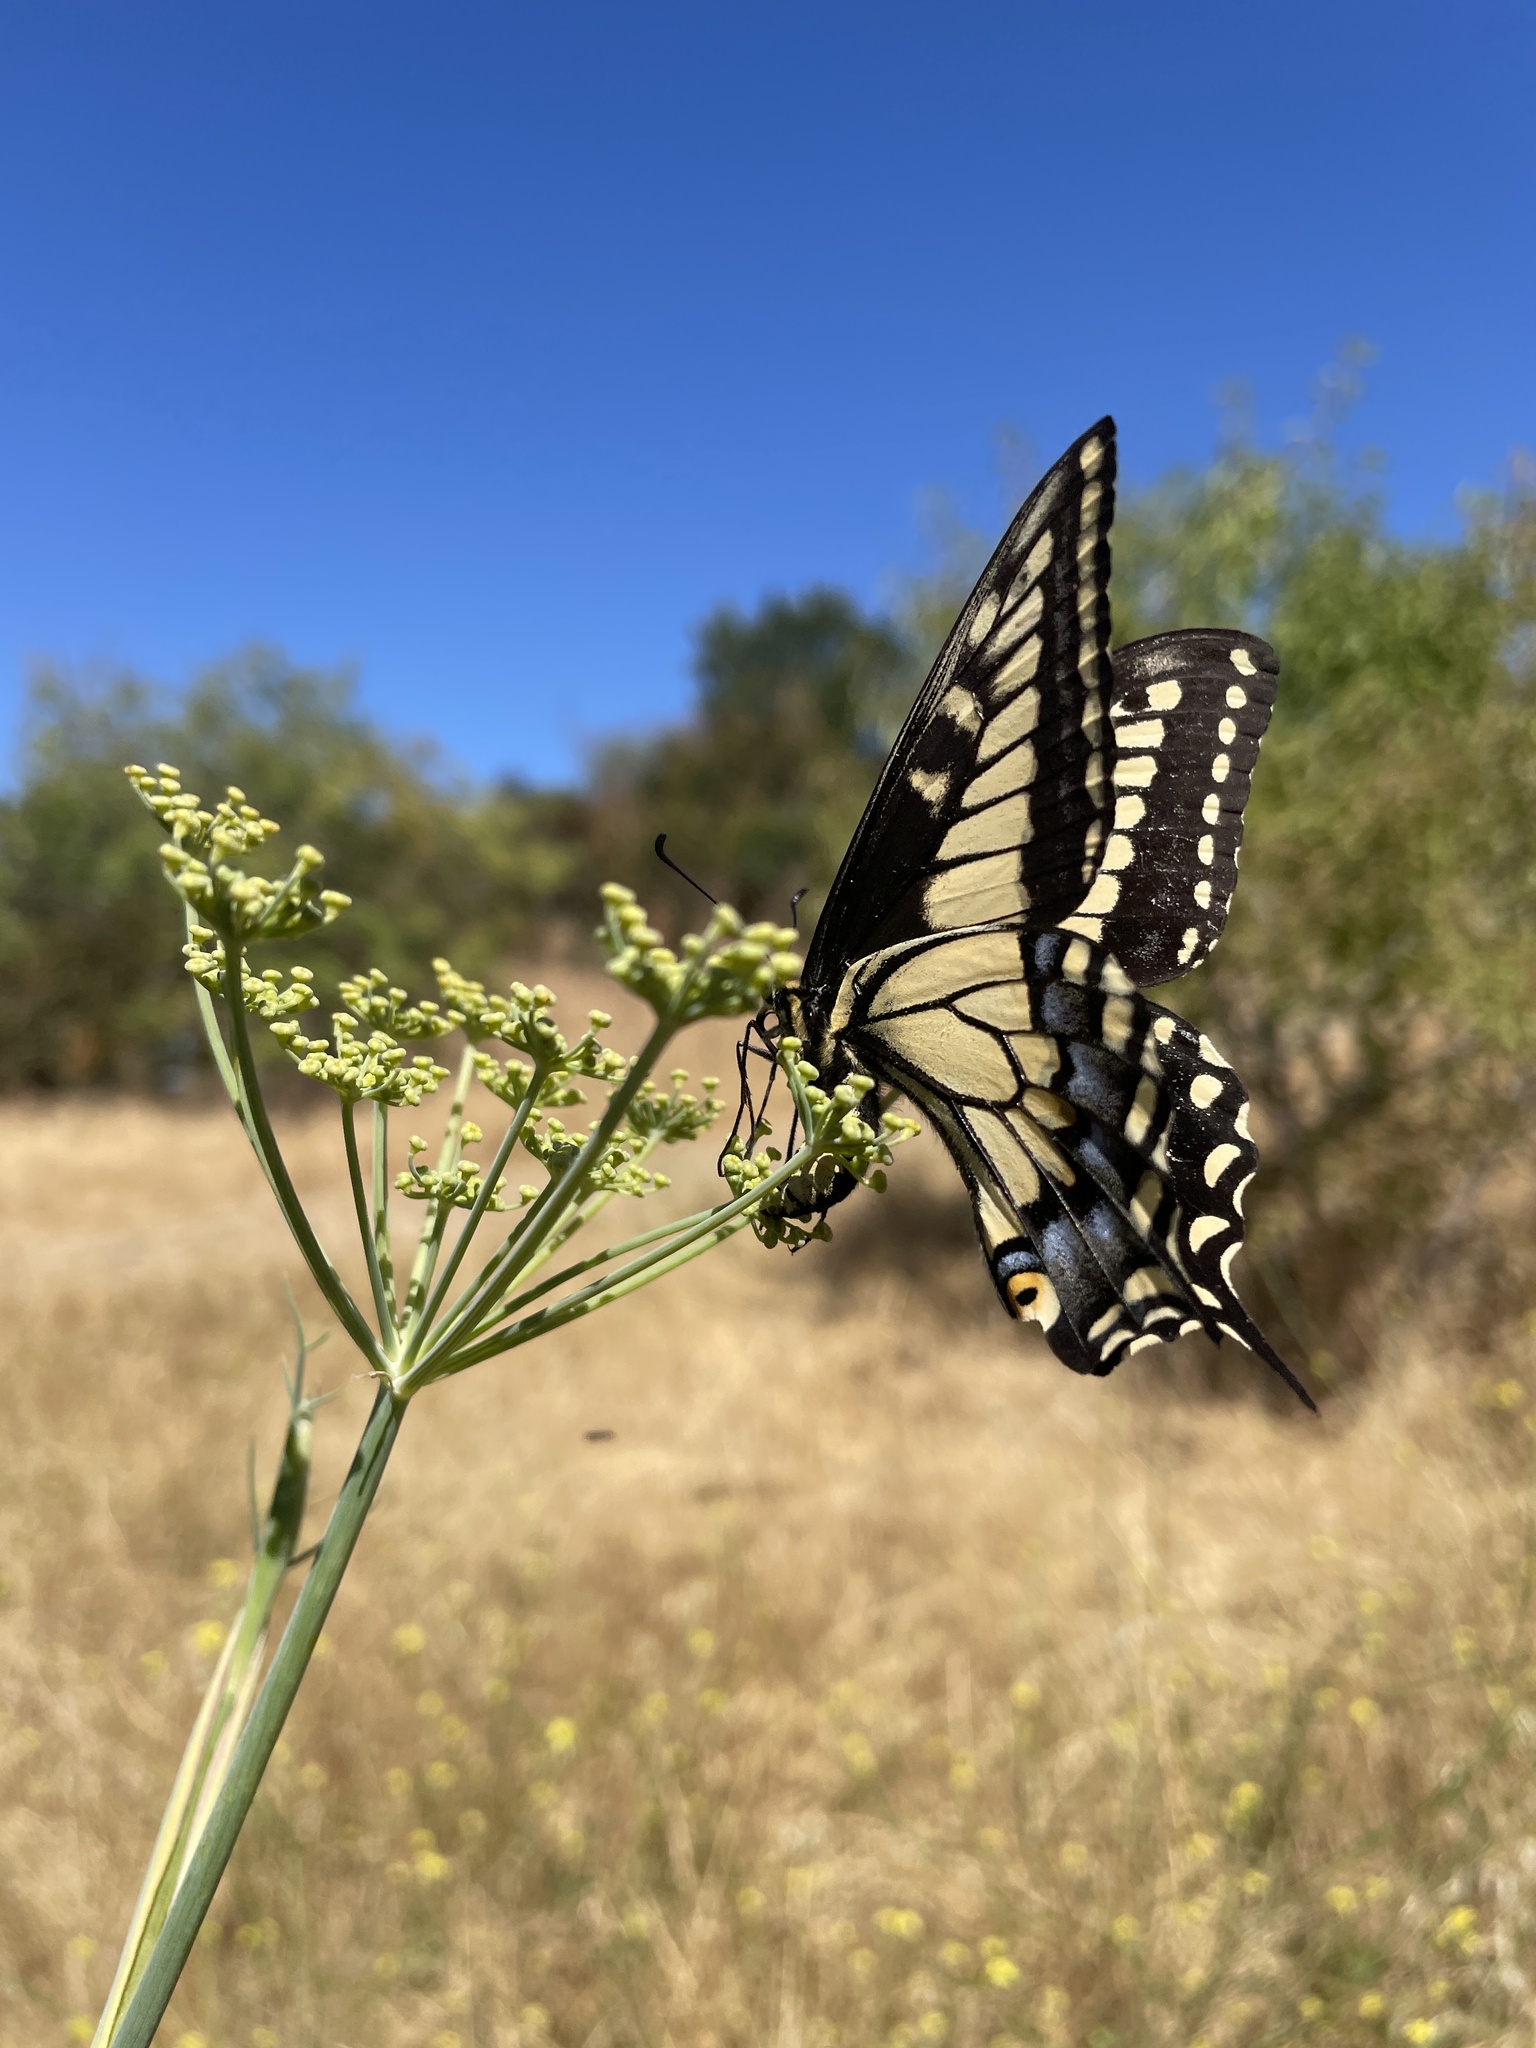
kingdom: Animalia
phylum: Arthropoda
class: Insecta
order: Lepidoptera
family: Papilionidae
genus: Papilio
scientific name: Papilio zelicaon
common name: Anise swallowtail
